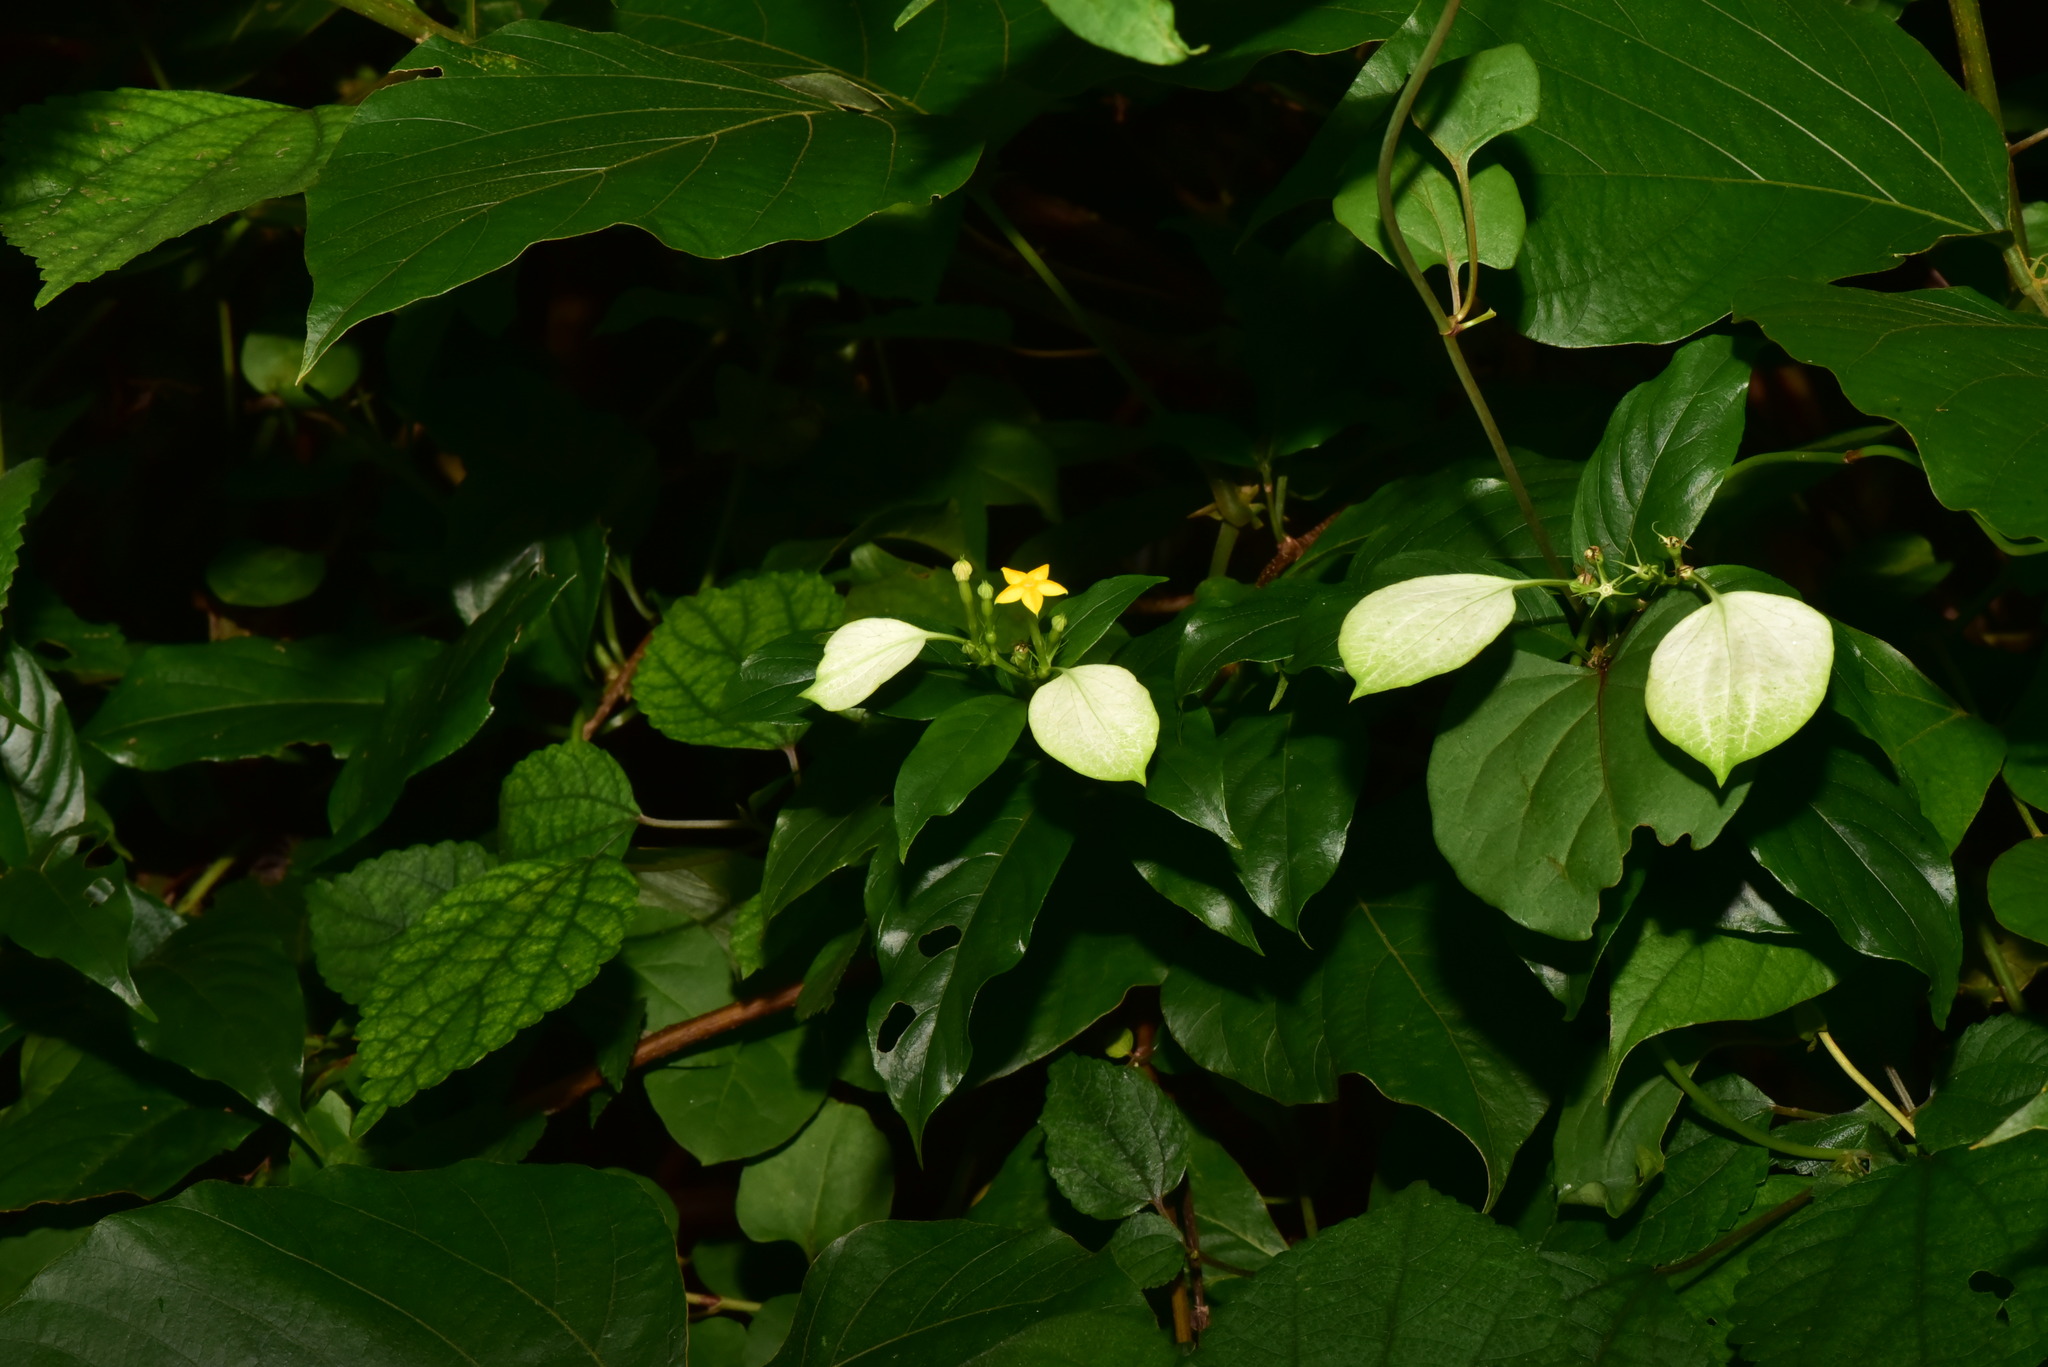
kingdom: Plantae
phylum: Tracheophyta
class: Magnoliopsida
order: Gentianales
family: Rubiaceae
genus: Mussaenda
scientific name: Mussaenda formosana
